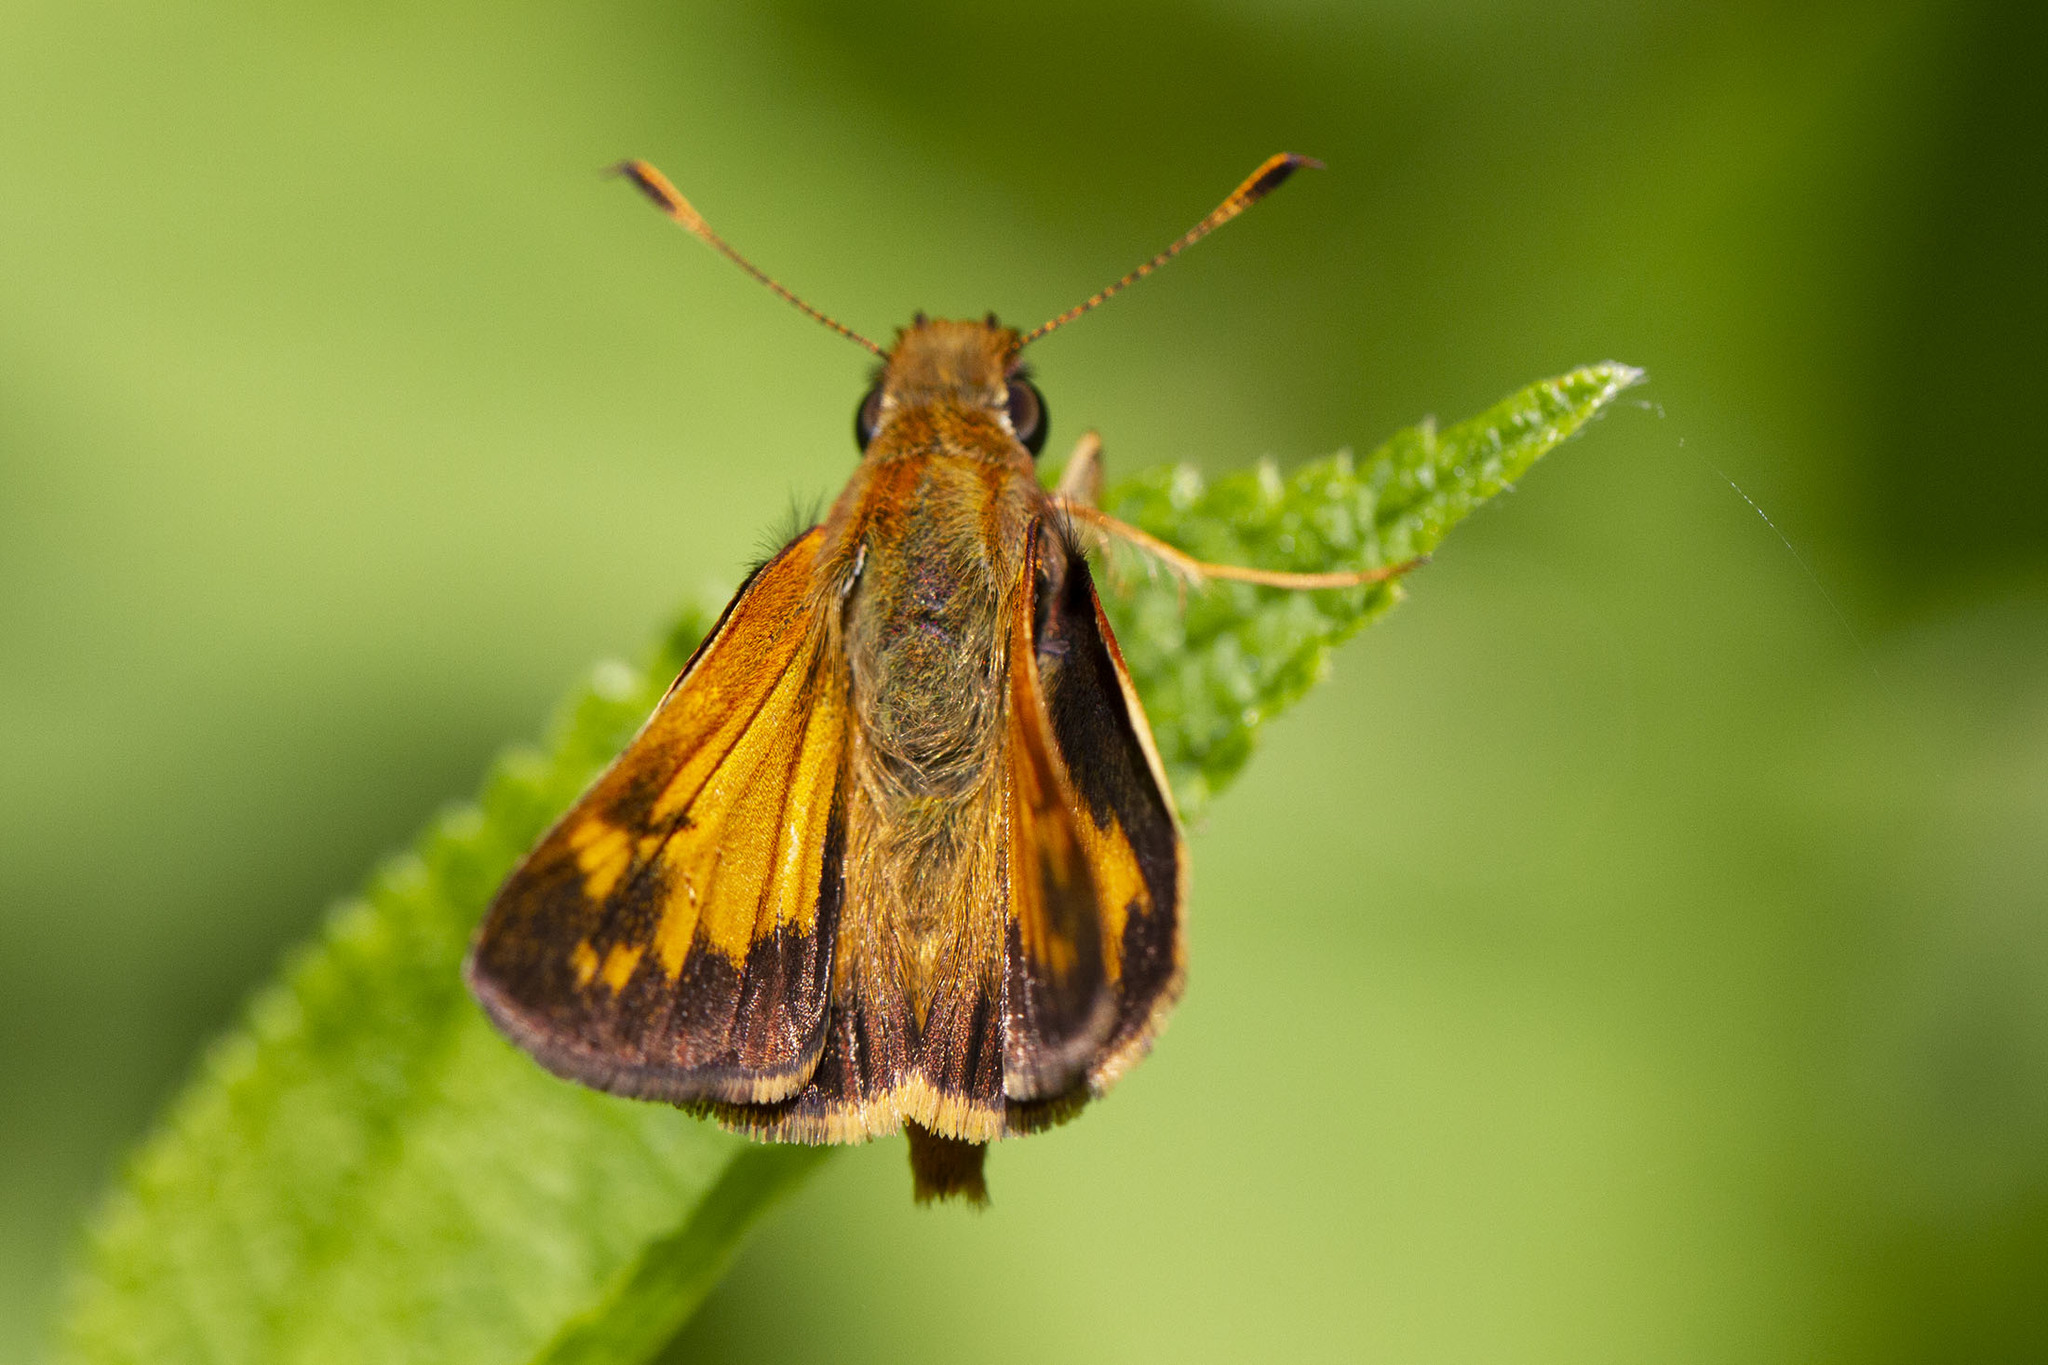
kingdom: Animalia
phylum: Arthropoda
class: Insecta
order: Lepidoptera
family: Hesperiidae
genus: Lon
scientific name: Lon zabulon
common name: Zabulon skipper
